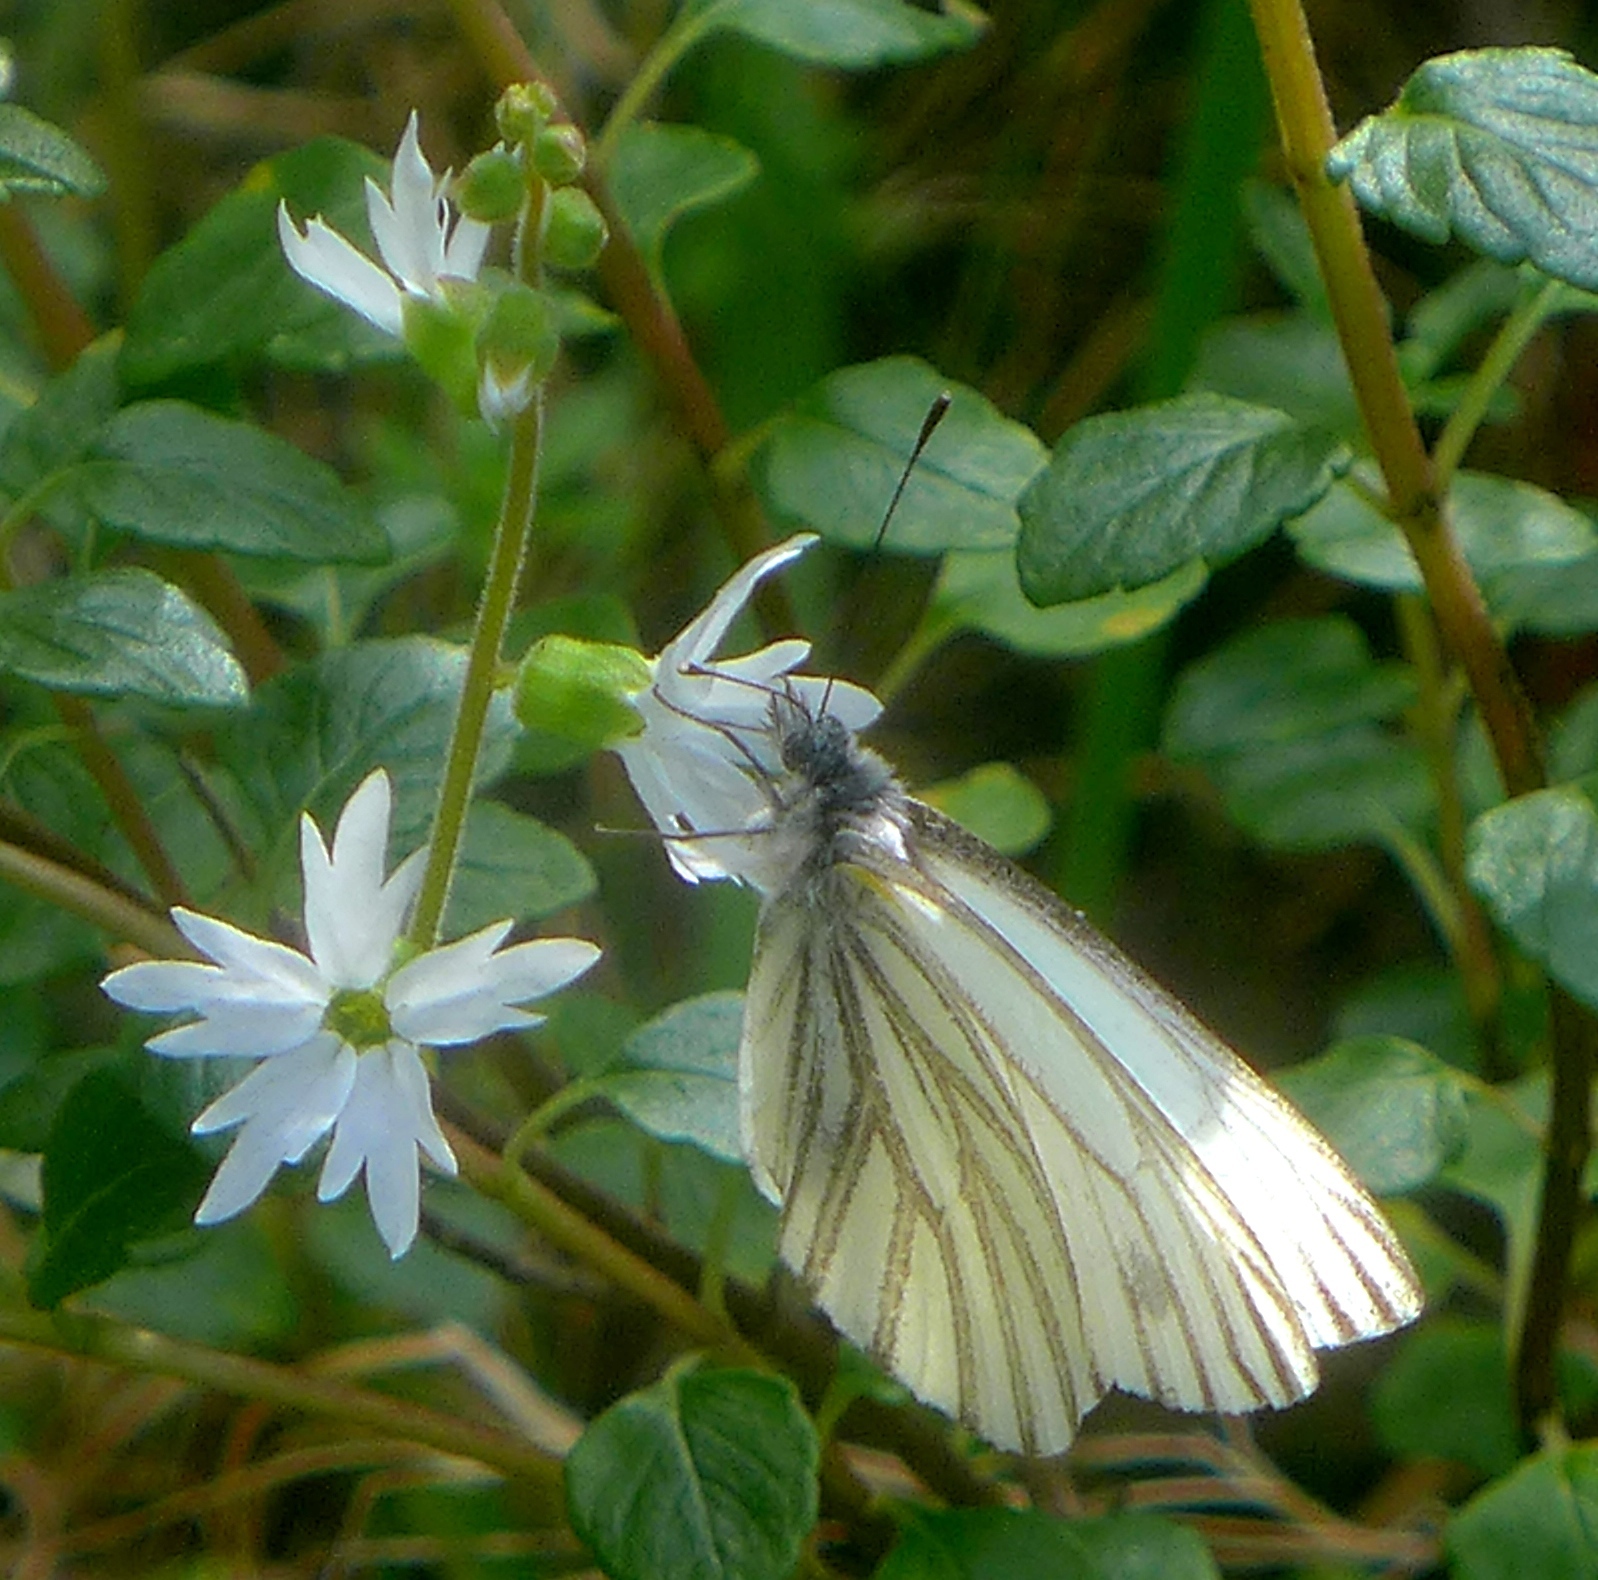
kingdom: Animalia
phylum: Arthropoda
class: Insecta
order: Lepidoptera
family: Pieridae
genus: Pieris
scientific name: Pieris marginalis
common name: Margined white
